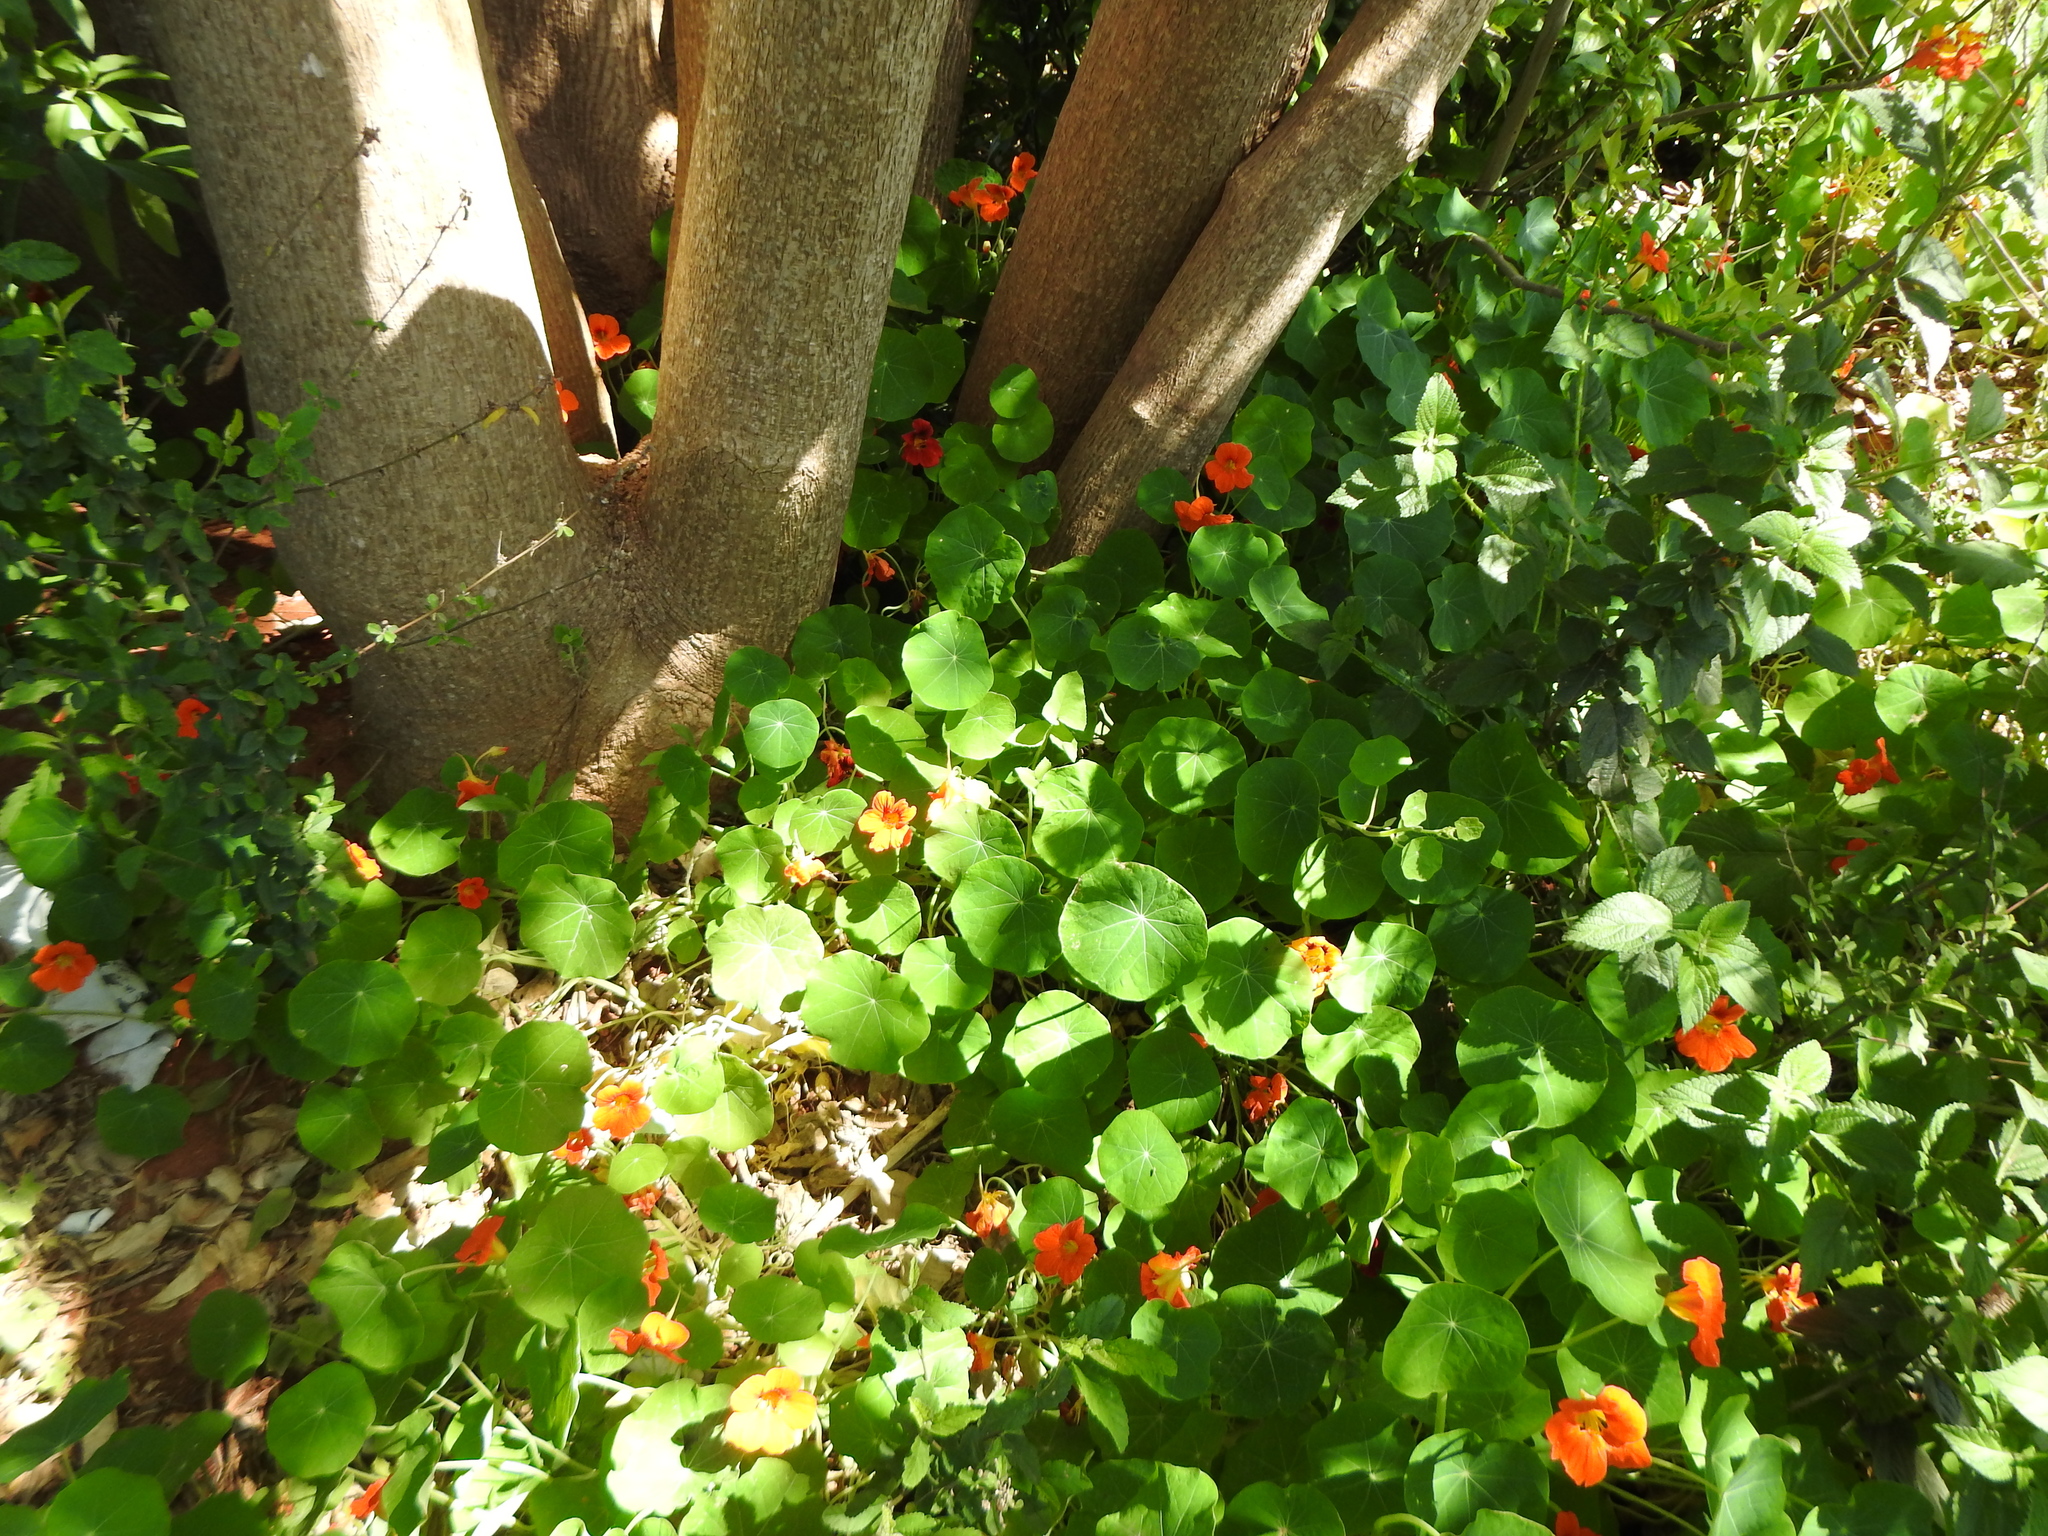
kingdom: Plantae
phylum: Tracheophyta
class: Magnoliopsida
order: Brassicales
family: Tropaeolaceae
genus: Tropaeolum
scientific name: Tropaeolum majus
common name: Nasturtium
